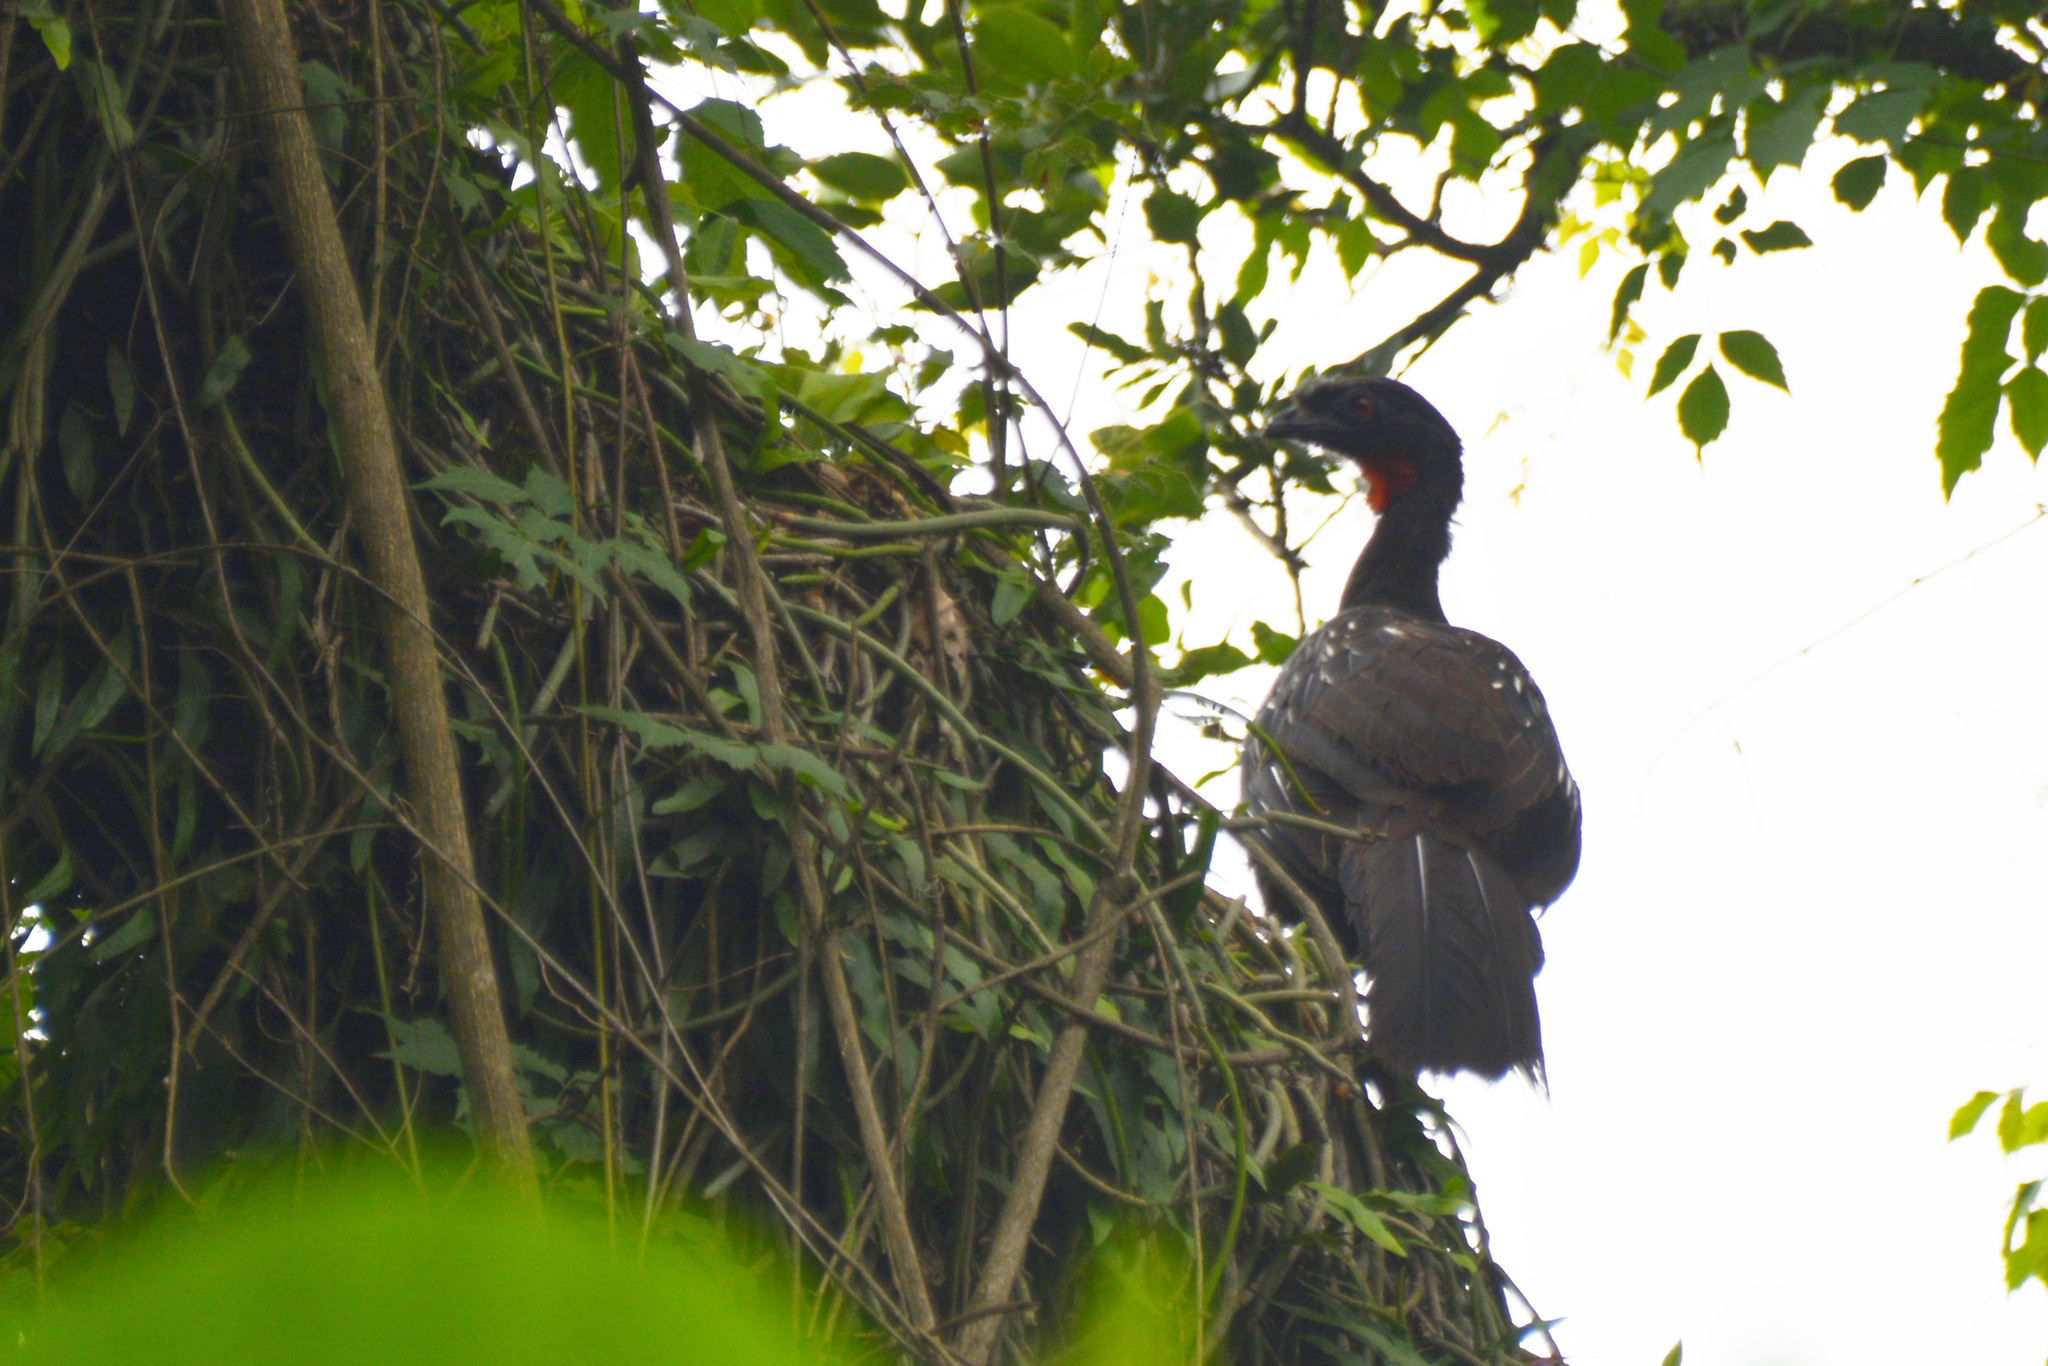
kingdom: Animalia
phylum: Chordata
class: Aves
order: Galliformes
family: Cracidae
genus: Penelope
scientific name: Penelope bridgesi
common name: Yungas guan
